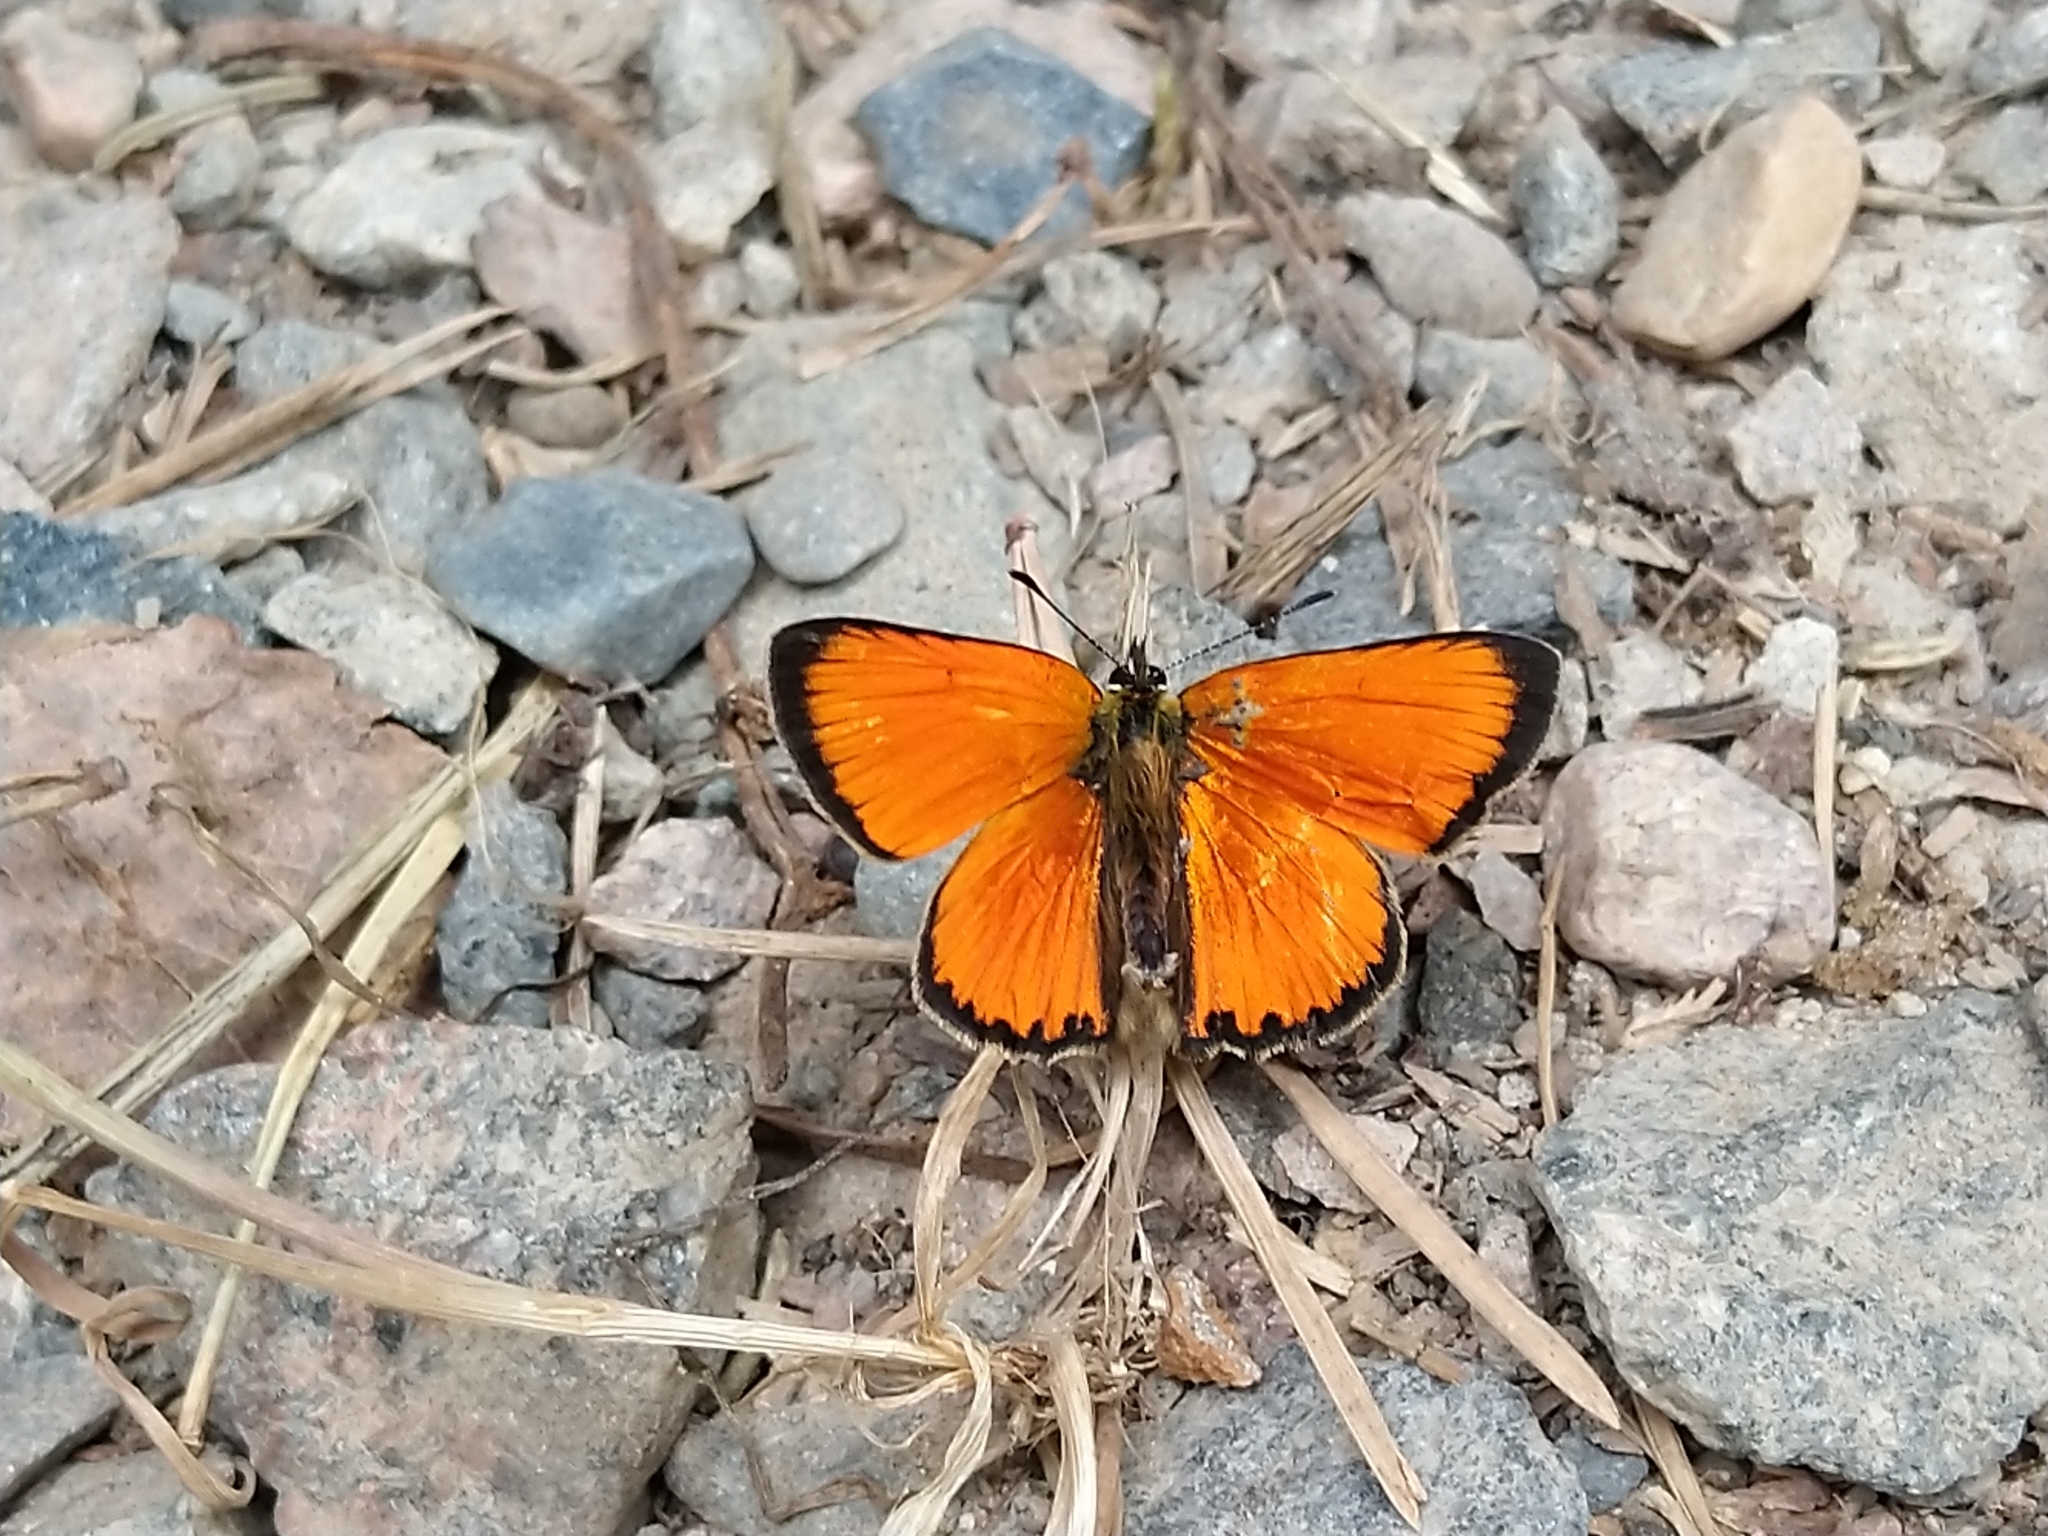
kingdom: Animalia
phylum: Arthropoda
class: Insecta
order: Lepidoptera
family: Lycaenidae
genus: Lycaena
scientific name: Lycaena virgaureae
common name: Scarce copper
